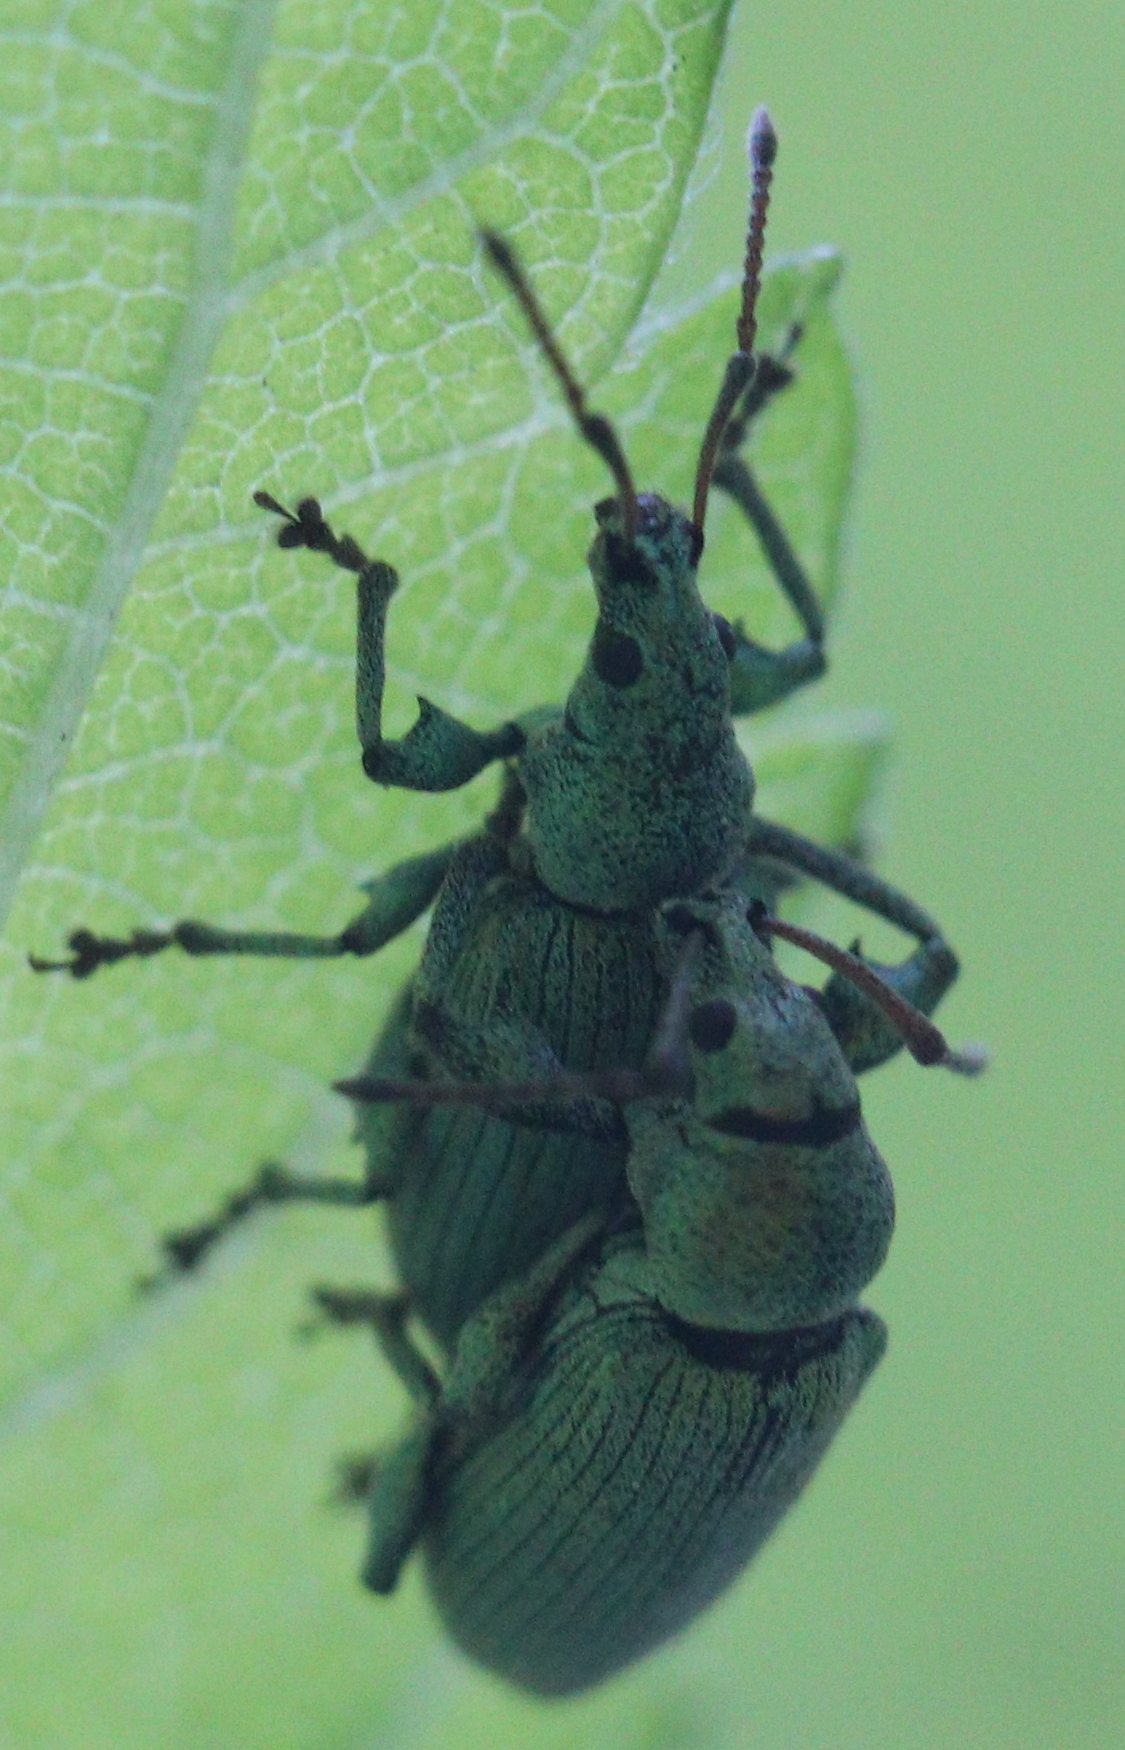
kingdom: Animalia
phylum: Arthropoda
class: Insecta
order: Coleoptera
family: Curculionidae
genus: Phyllobius
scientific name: Phyllobius maculicornis
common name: Green leaf weevil
